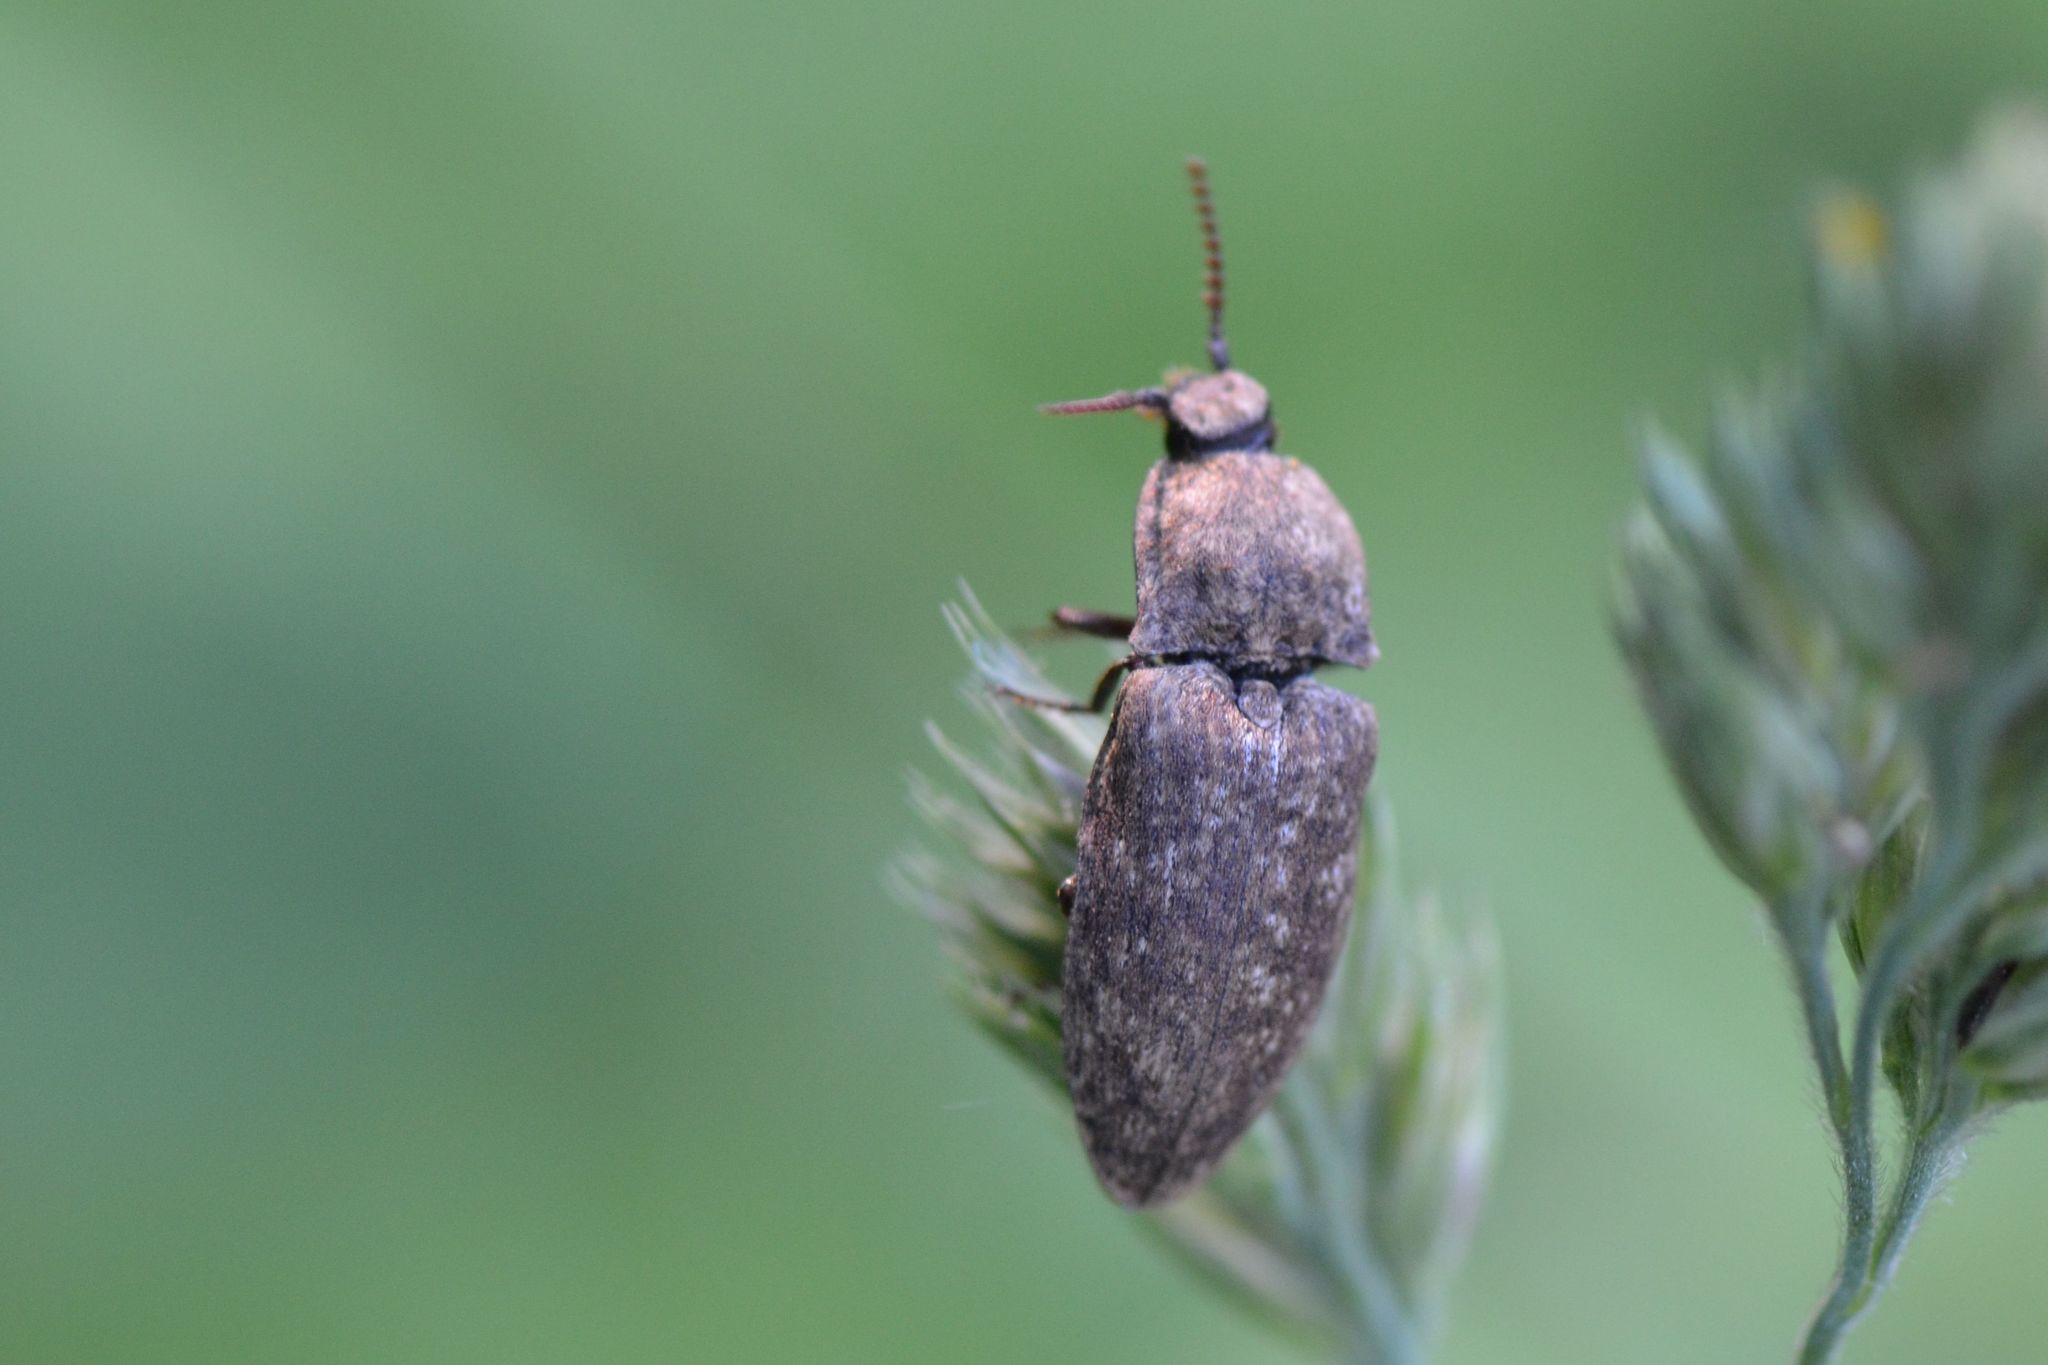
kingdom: Animalia
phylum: Arthropoda
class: Insecta
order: Coleoptera
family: Elateridae
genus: Agrypnus
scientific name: Agrypnus murinus
